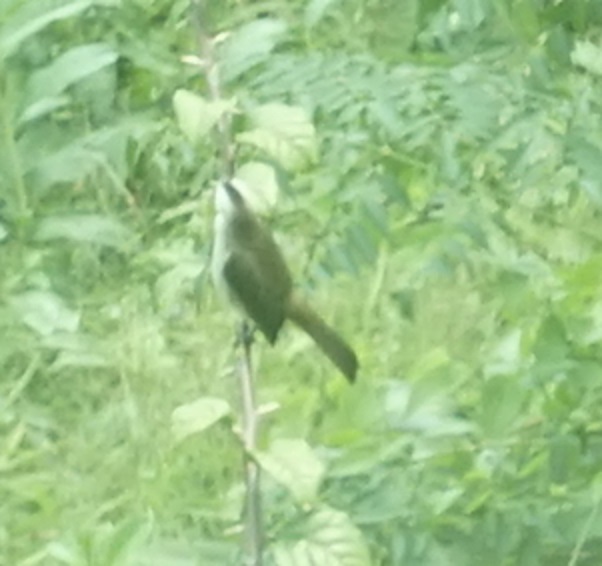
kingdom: Animalia
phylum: Chordata
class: Aves
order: Passeriformes
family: Pycnonotidae
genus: Pycnonotus
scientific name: Pycnonotus goiavier
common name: Yellow-vented bulbul
